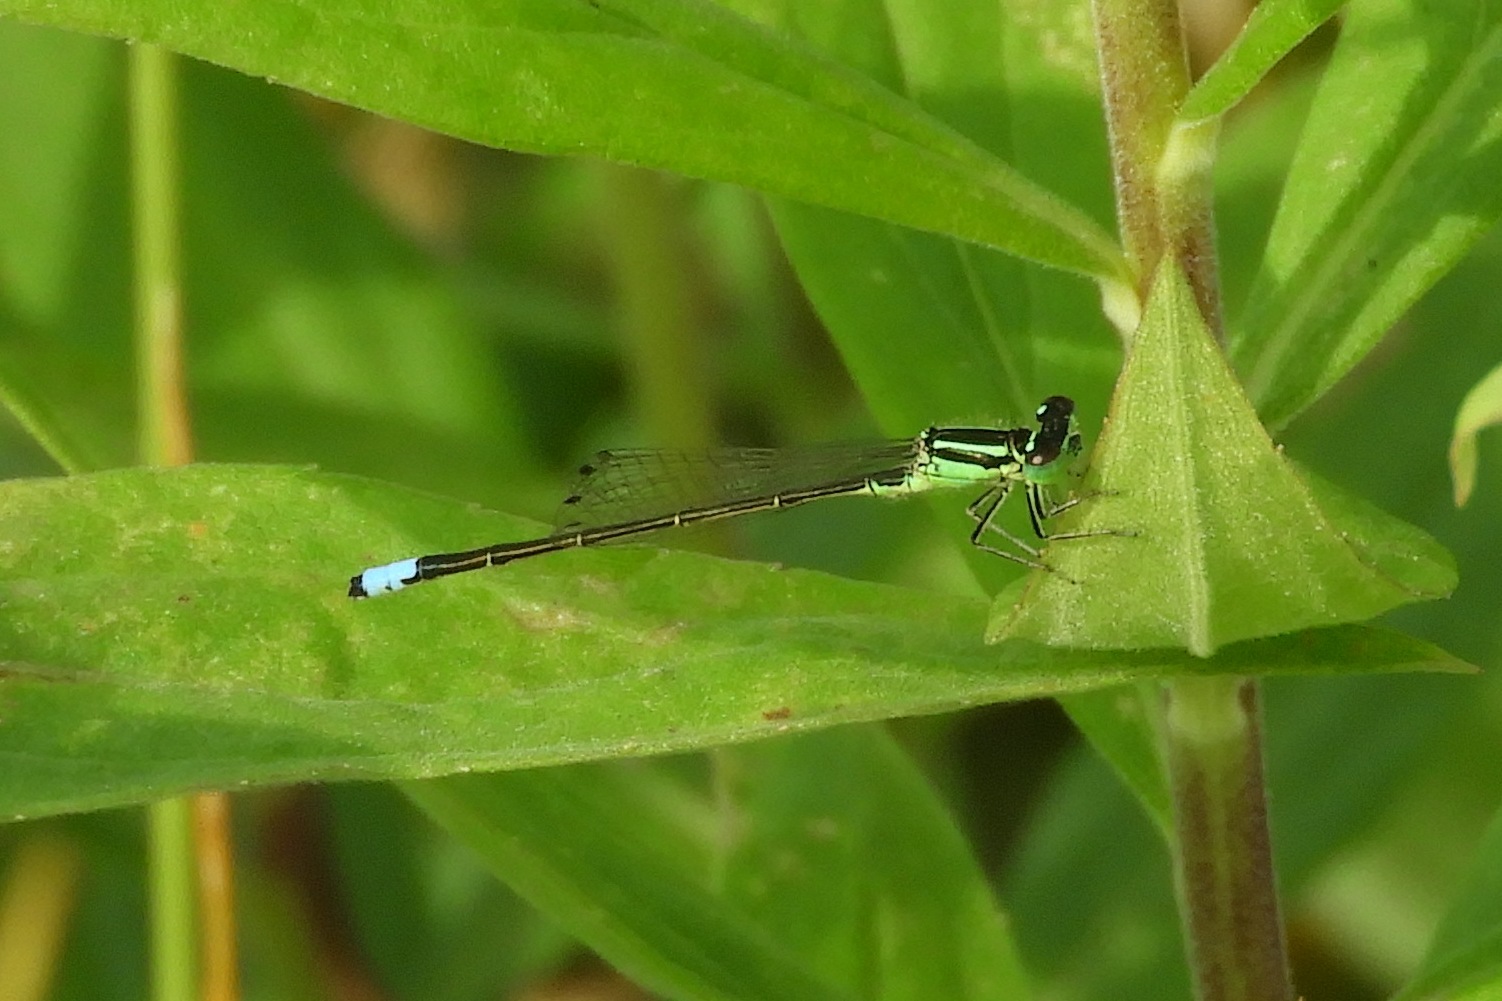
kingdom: Animalia
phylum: Arthropoda
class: Insecta
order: Odonata
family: Coenagrionidae
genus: Ischnura
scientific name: Ischnura verticalis
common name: Eastern forktail
